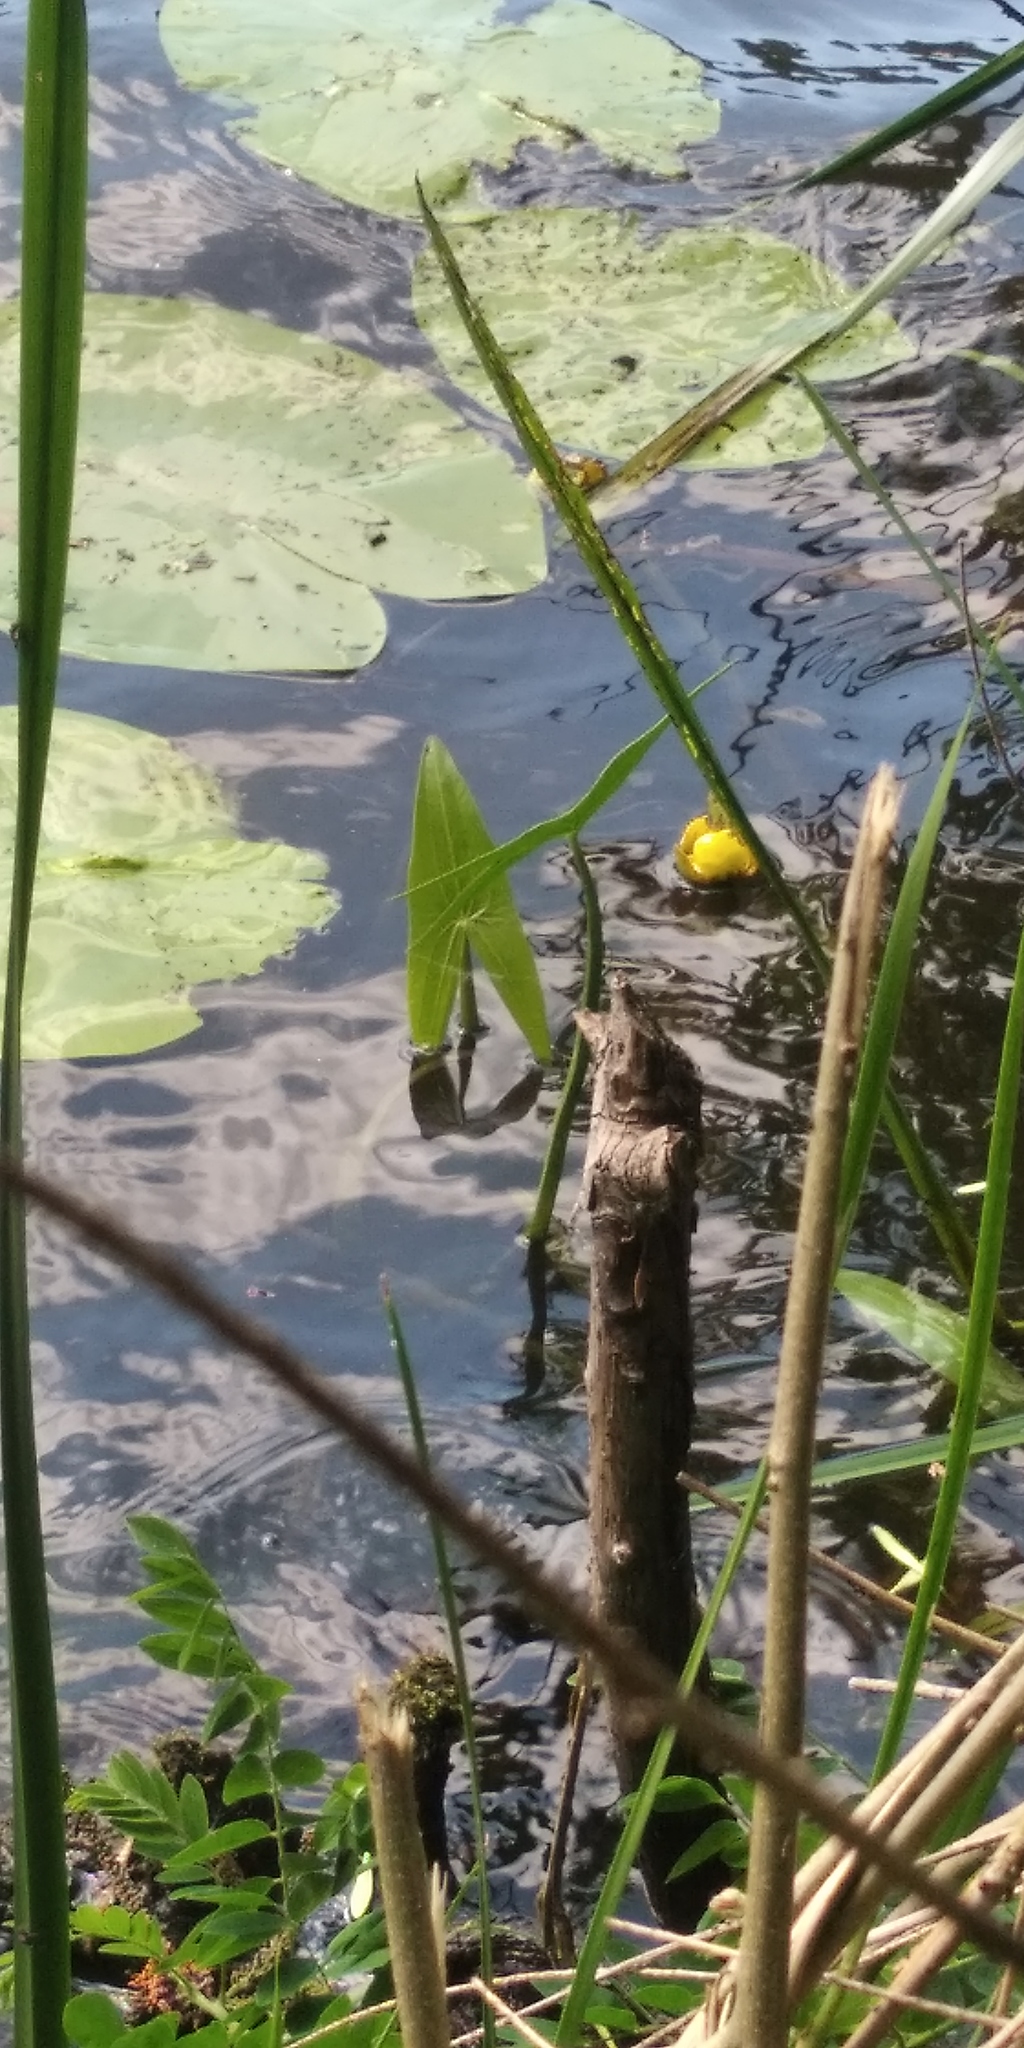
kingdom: Plantae
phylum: Tracheophyta
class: Liliopsida
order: Alismatales
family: Alismataceae
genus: Sagittaria
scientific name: Sagittaria sagittifolia
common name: Arrowhead
